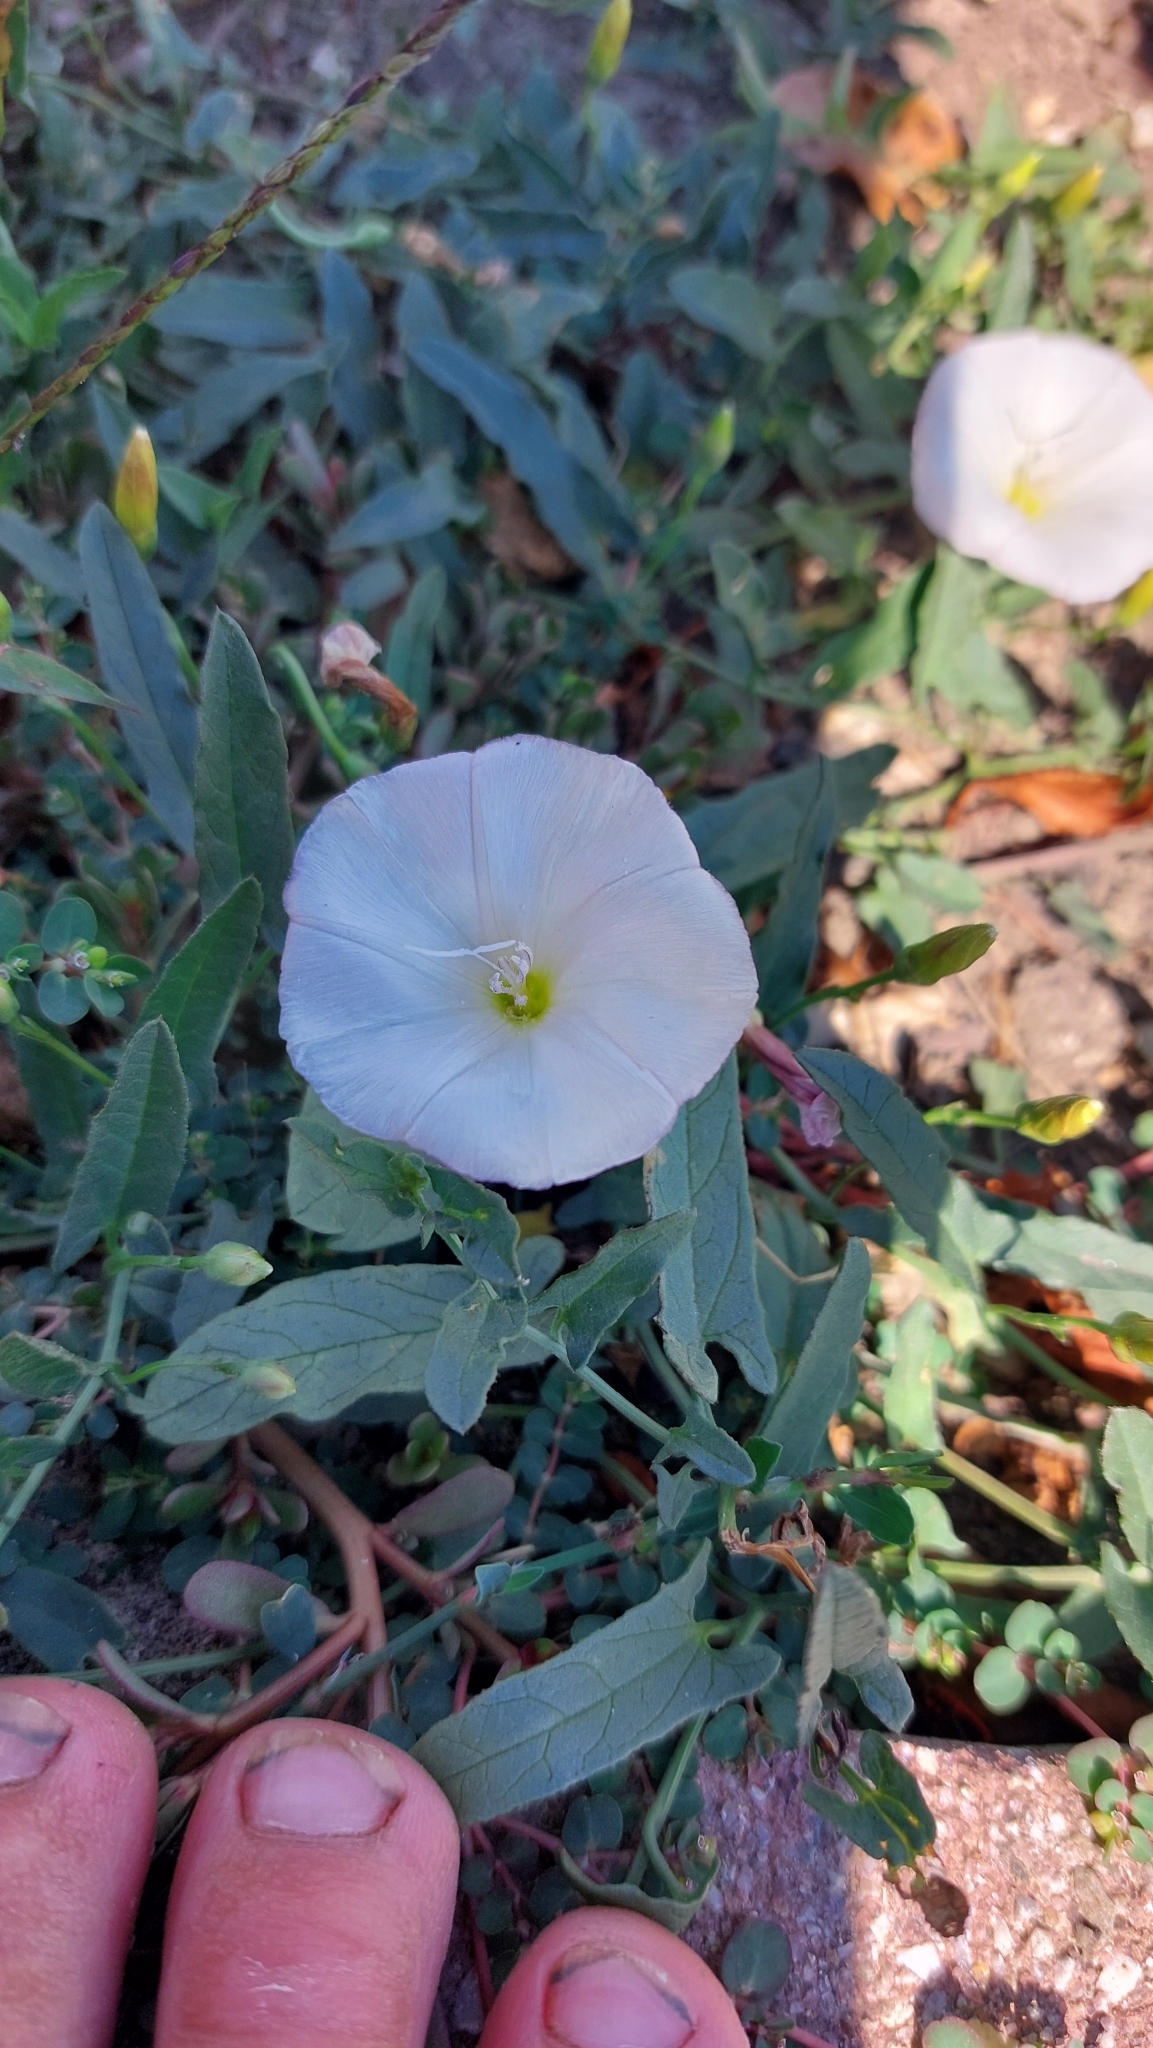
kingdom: Plantae
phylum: Tracheophyta
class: Magnoliopsida
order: Solanales
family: Convolvulaceae
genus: Convolvulus
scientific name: Convolvulus arvensis
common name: Field bindweed
